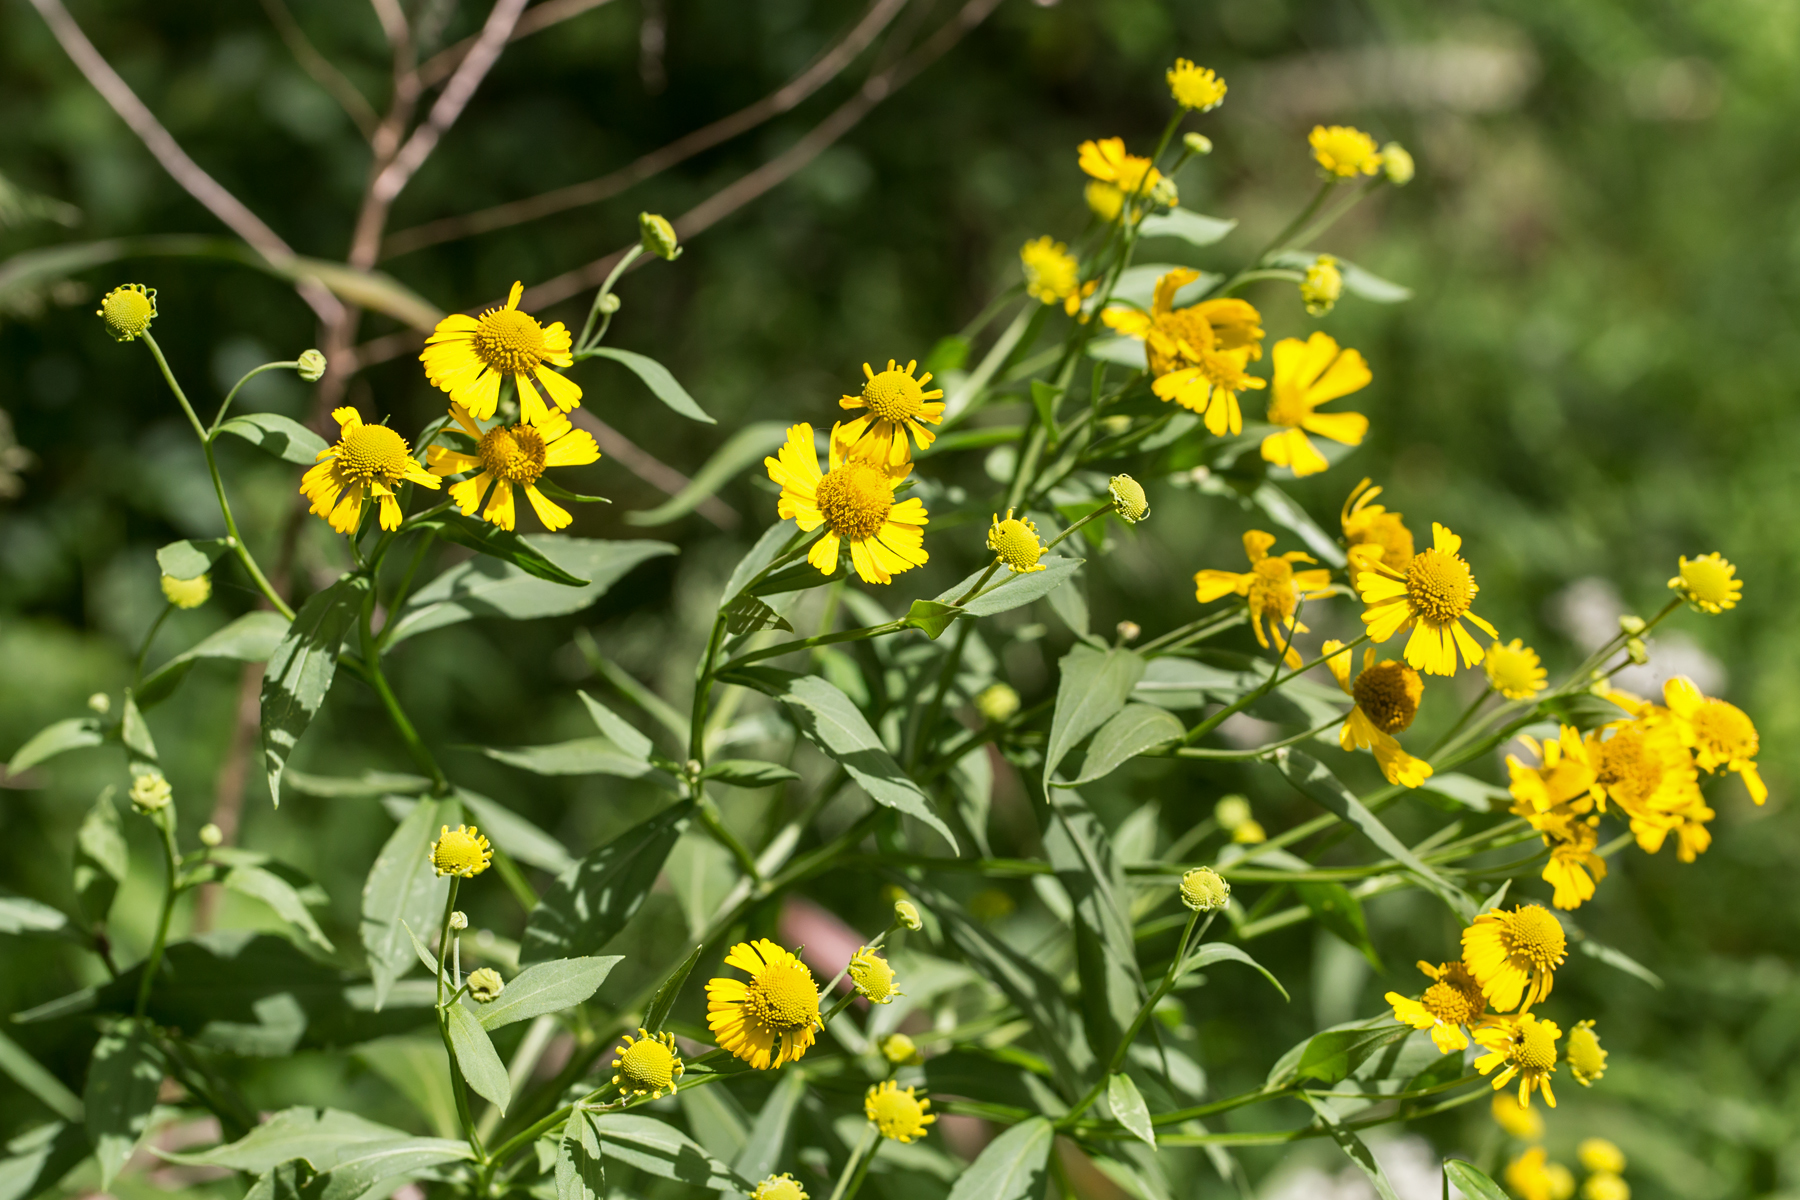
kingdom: Plantae
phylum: Tracheophyta
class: Magnoliopsida
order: Asterales
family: Asteraceae
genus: Helenium
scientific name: Helenium autumnale
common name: Sneezeweed
